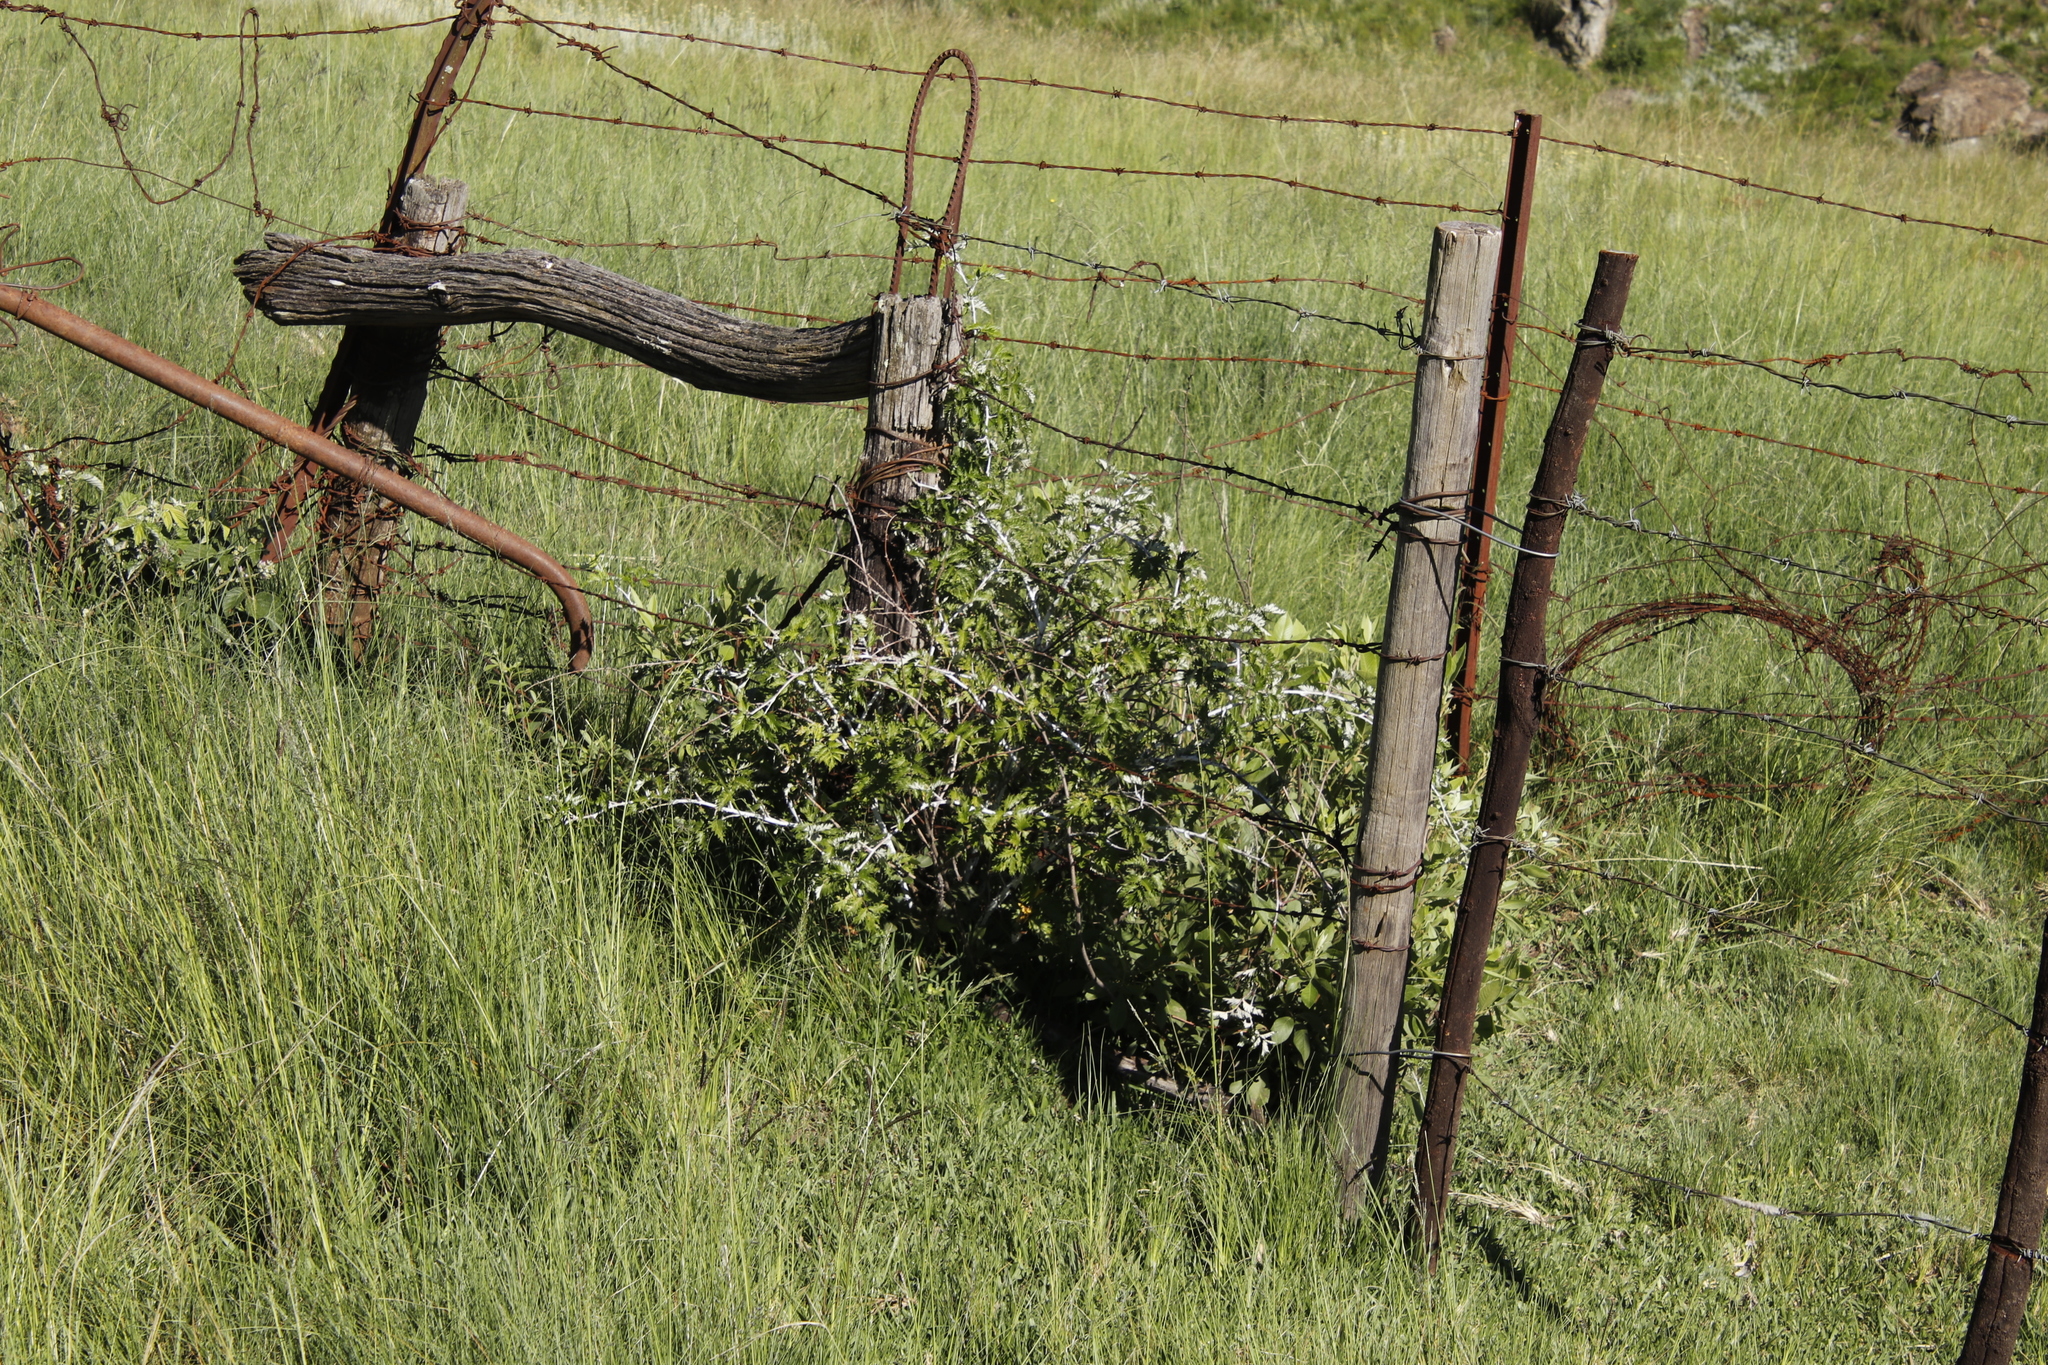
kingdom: Plantae
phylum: Tracheophyta
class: Magnoliopsida
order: Rosales
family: Rosaceae
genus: Rubus
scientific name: Rubus ludwigii
